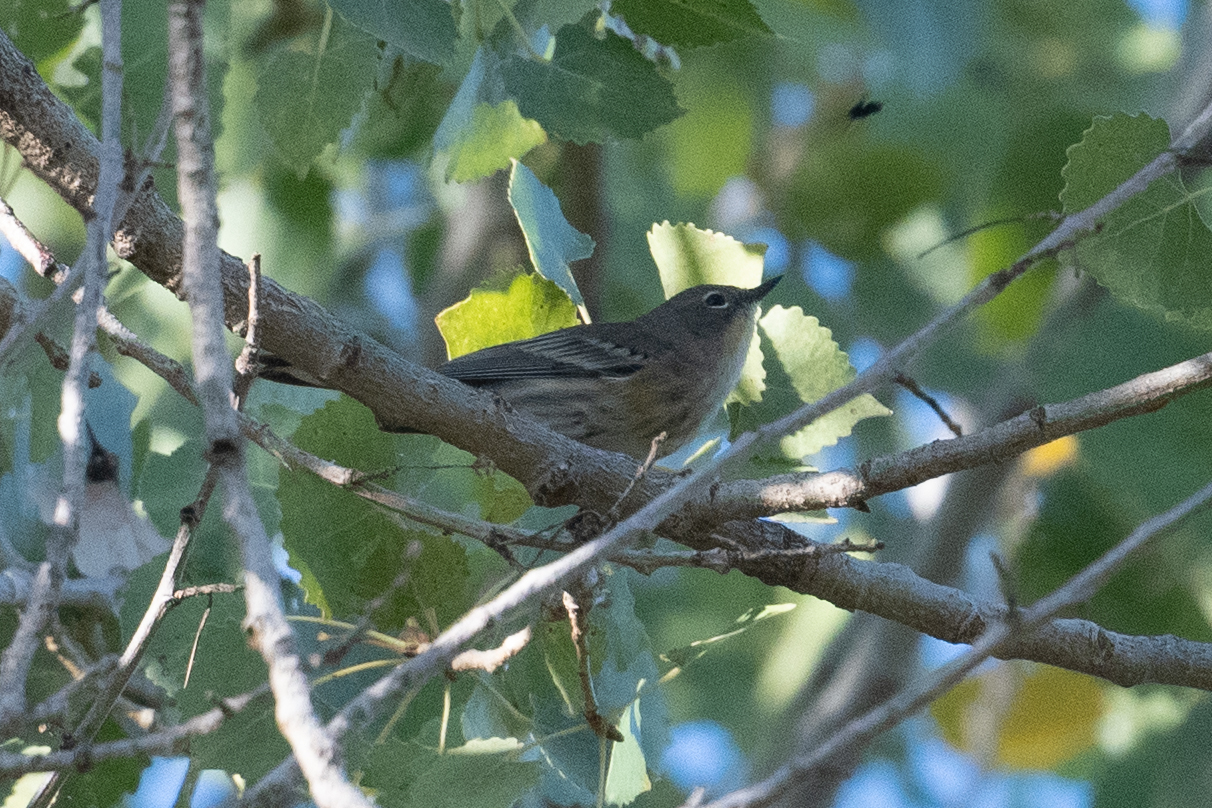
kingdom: Animalia
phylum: Chordata
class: Aves
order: Passeriformes
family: Parulidae
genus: Setophaga
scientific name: Setophaga coronata
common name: Myrtle warbler
